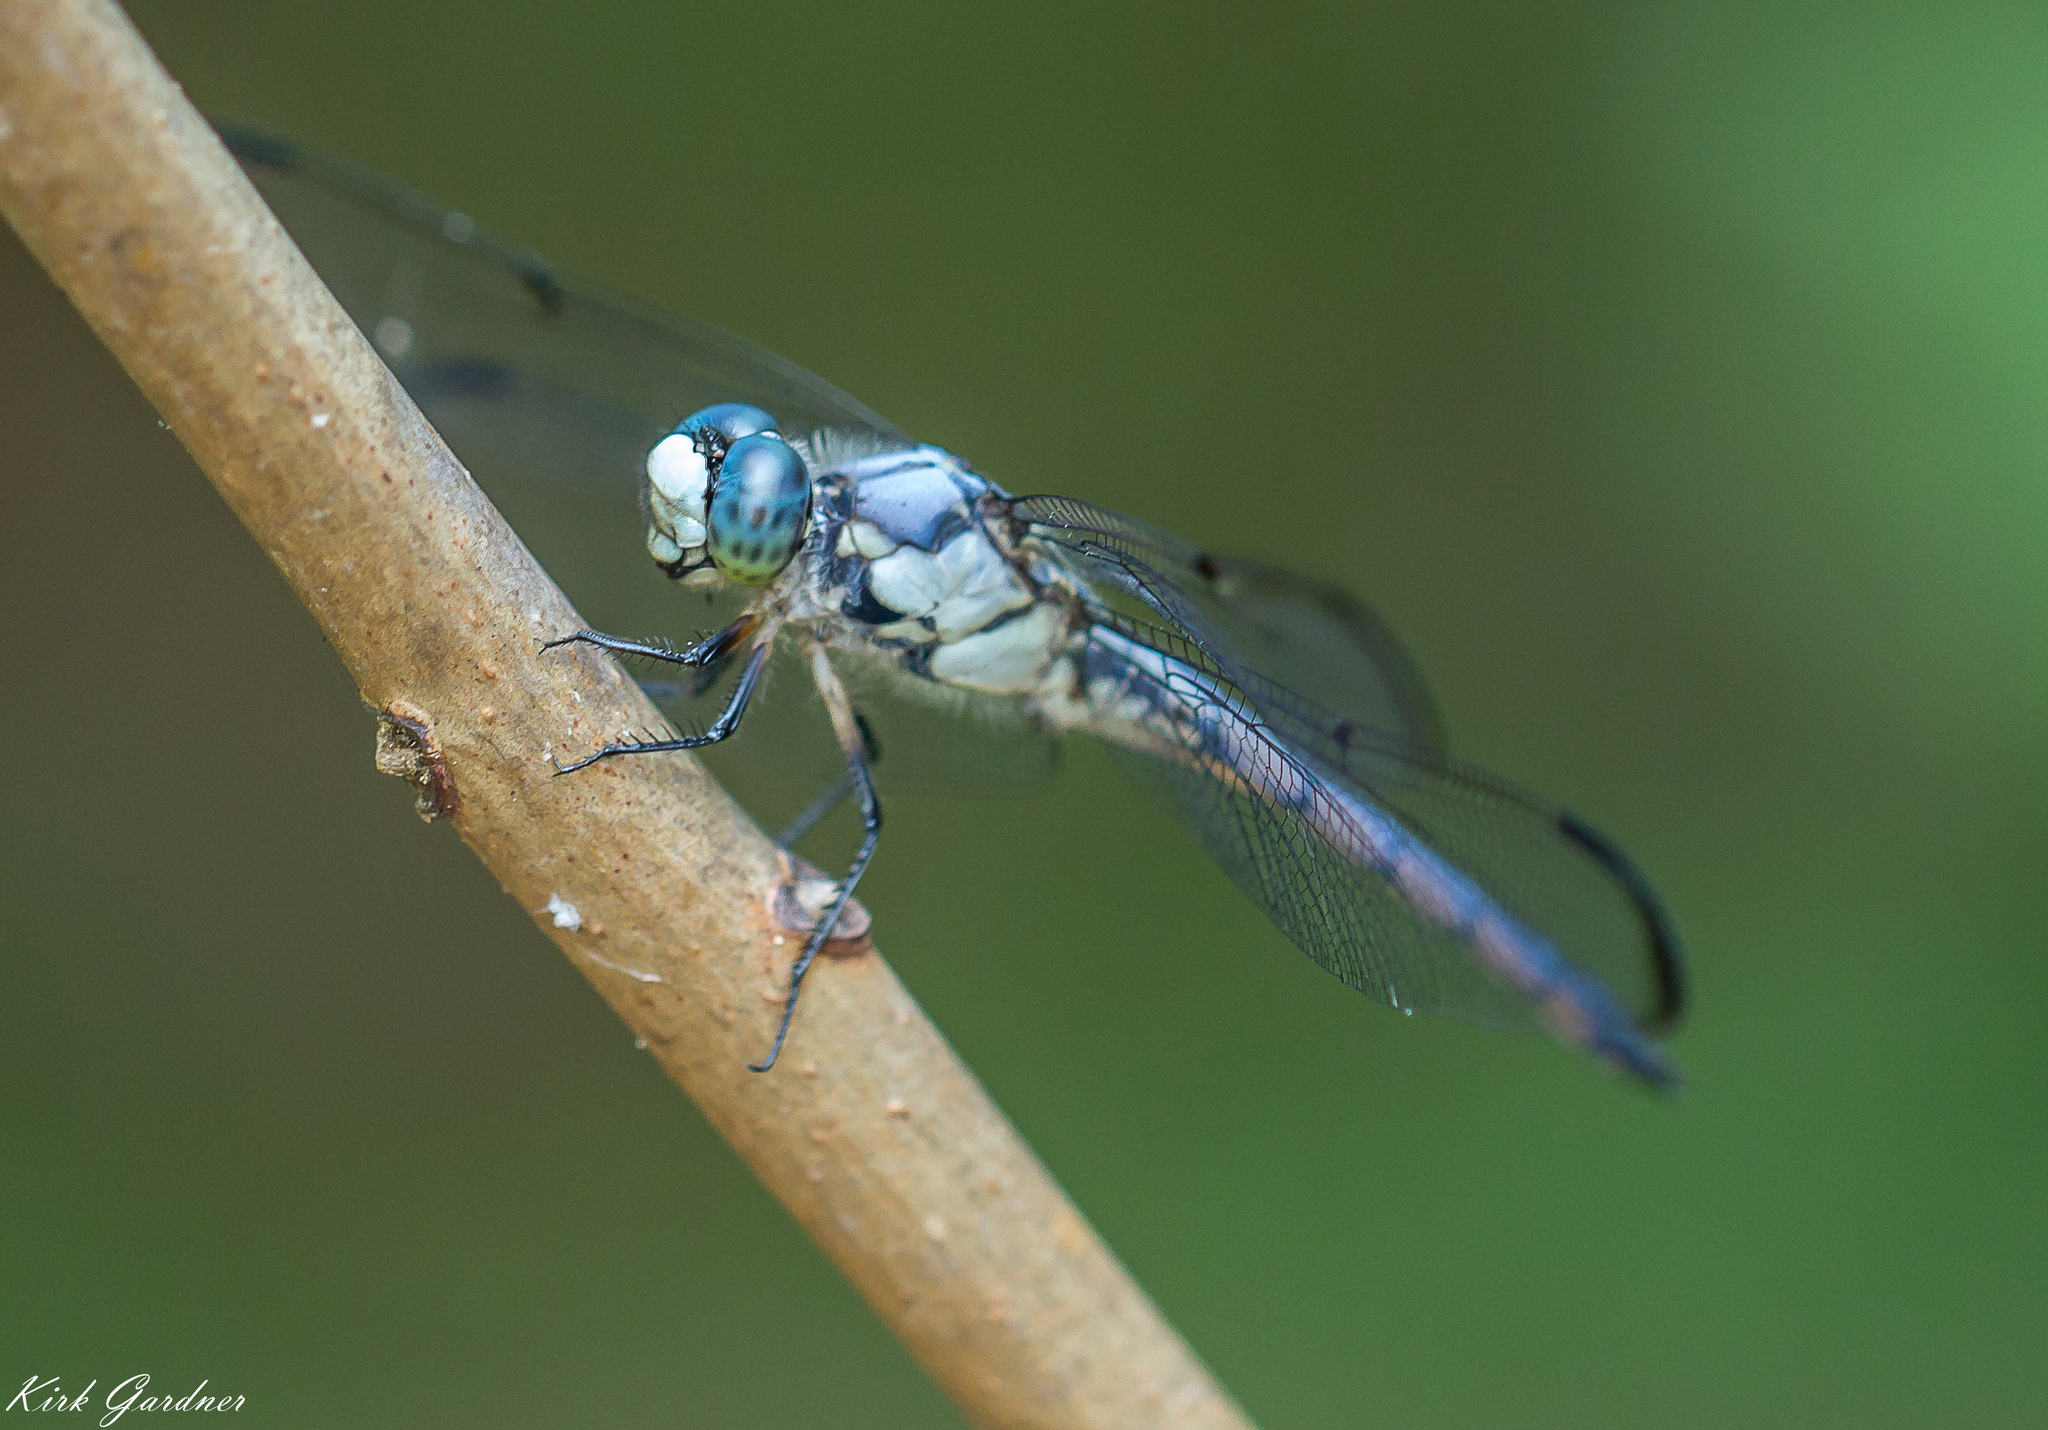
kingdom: Animalia
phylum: Arthropoda
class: Insecta
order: Odonata
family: Libellulidae
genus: Libellula
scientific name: Libellula vibrans
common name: Great blue skimmer
